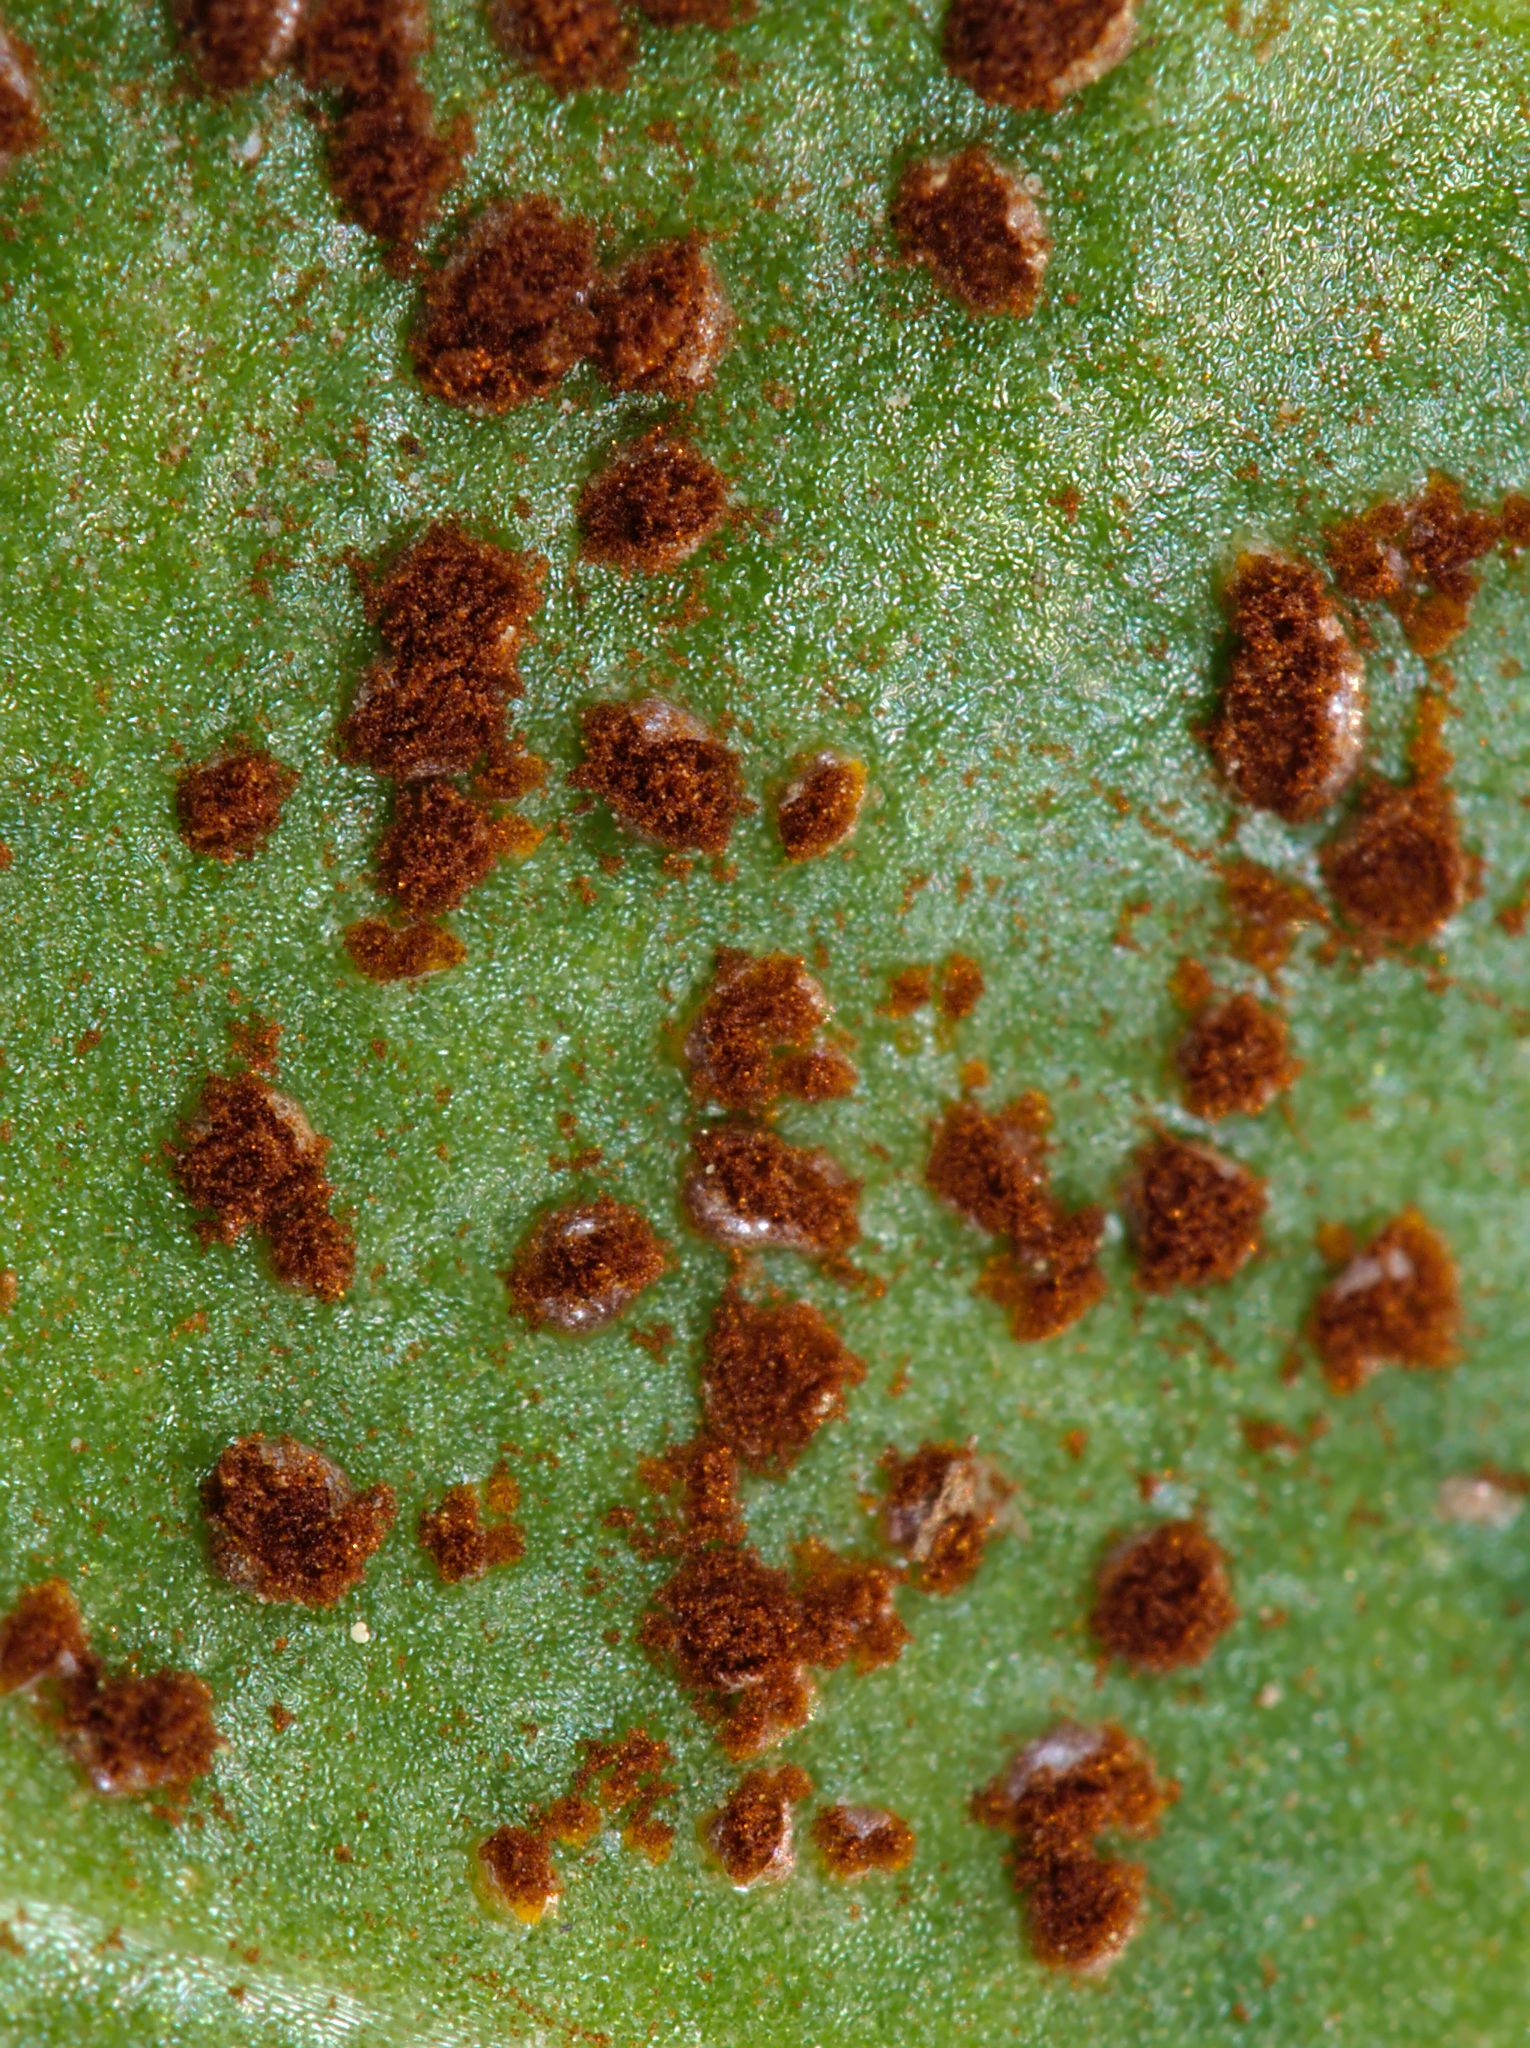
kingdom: Fungi
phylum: Basidiomycota
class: Pucciniomycetes
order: Pucciniales
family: Pucciniaceae
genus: Uromyces
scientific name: Uromyces betae
